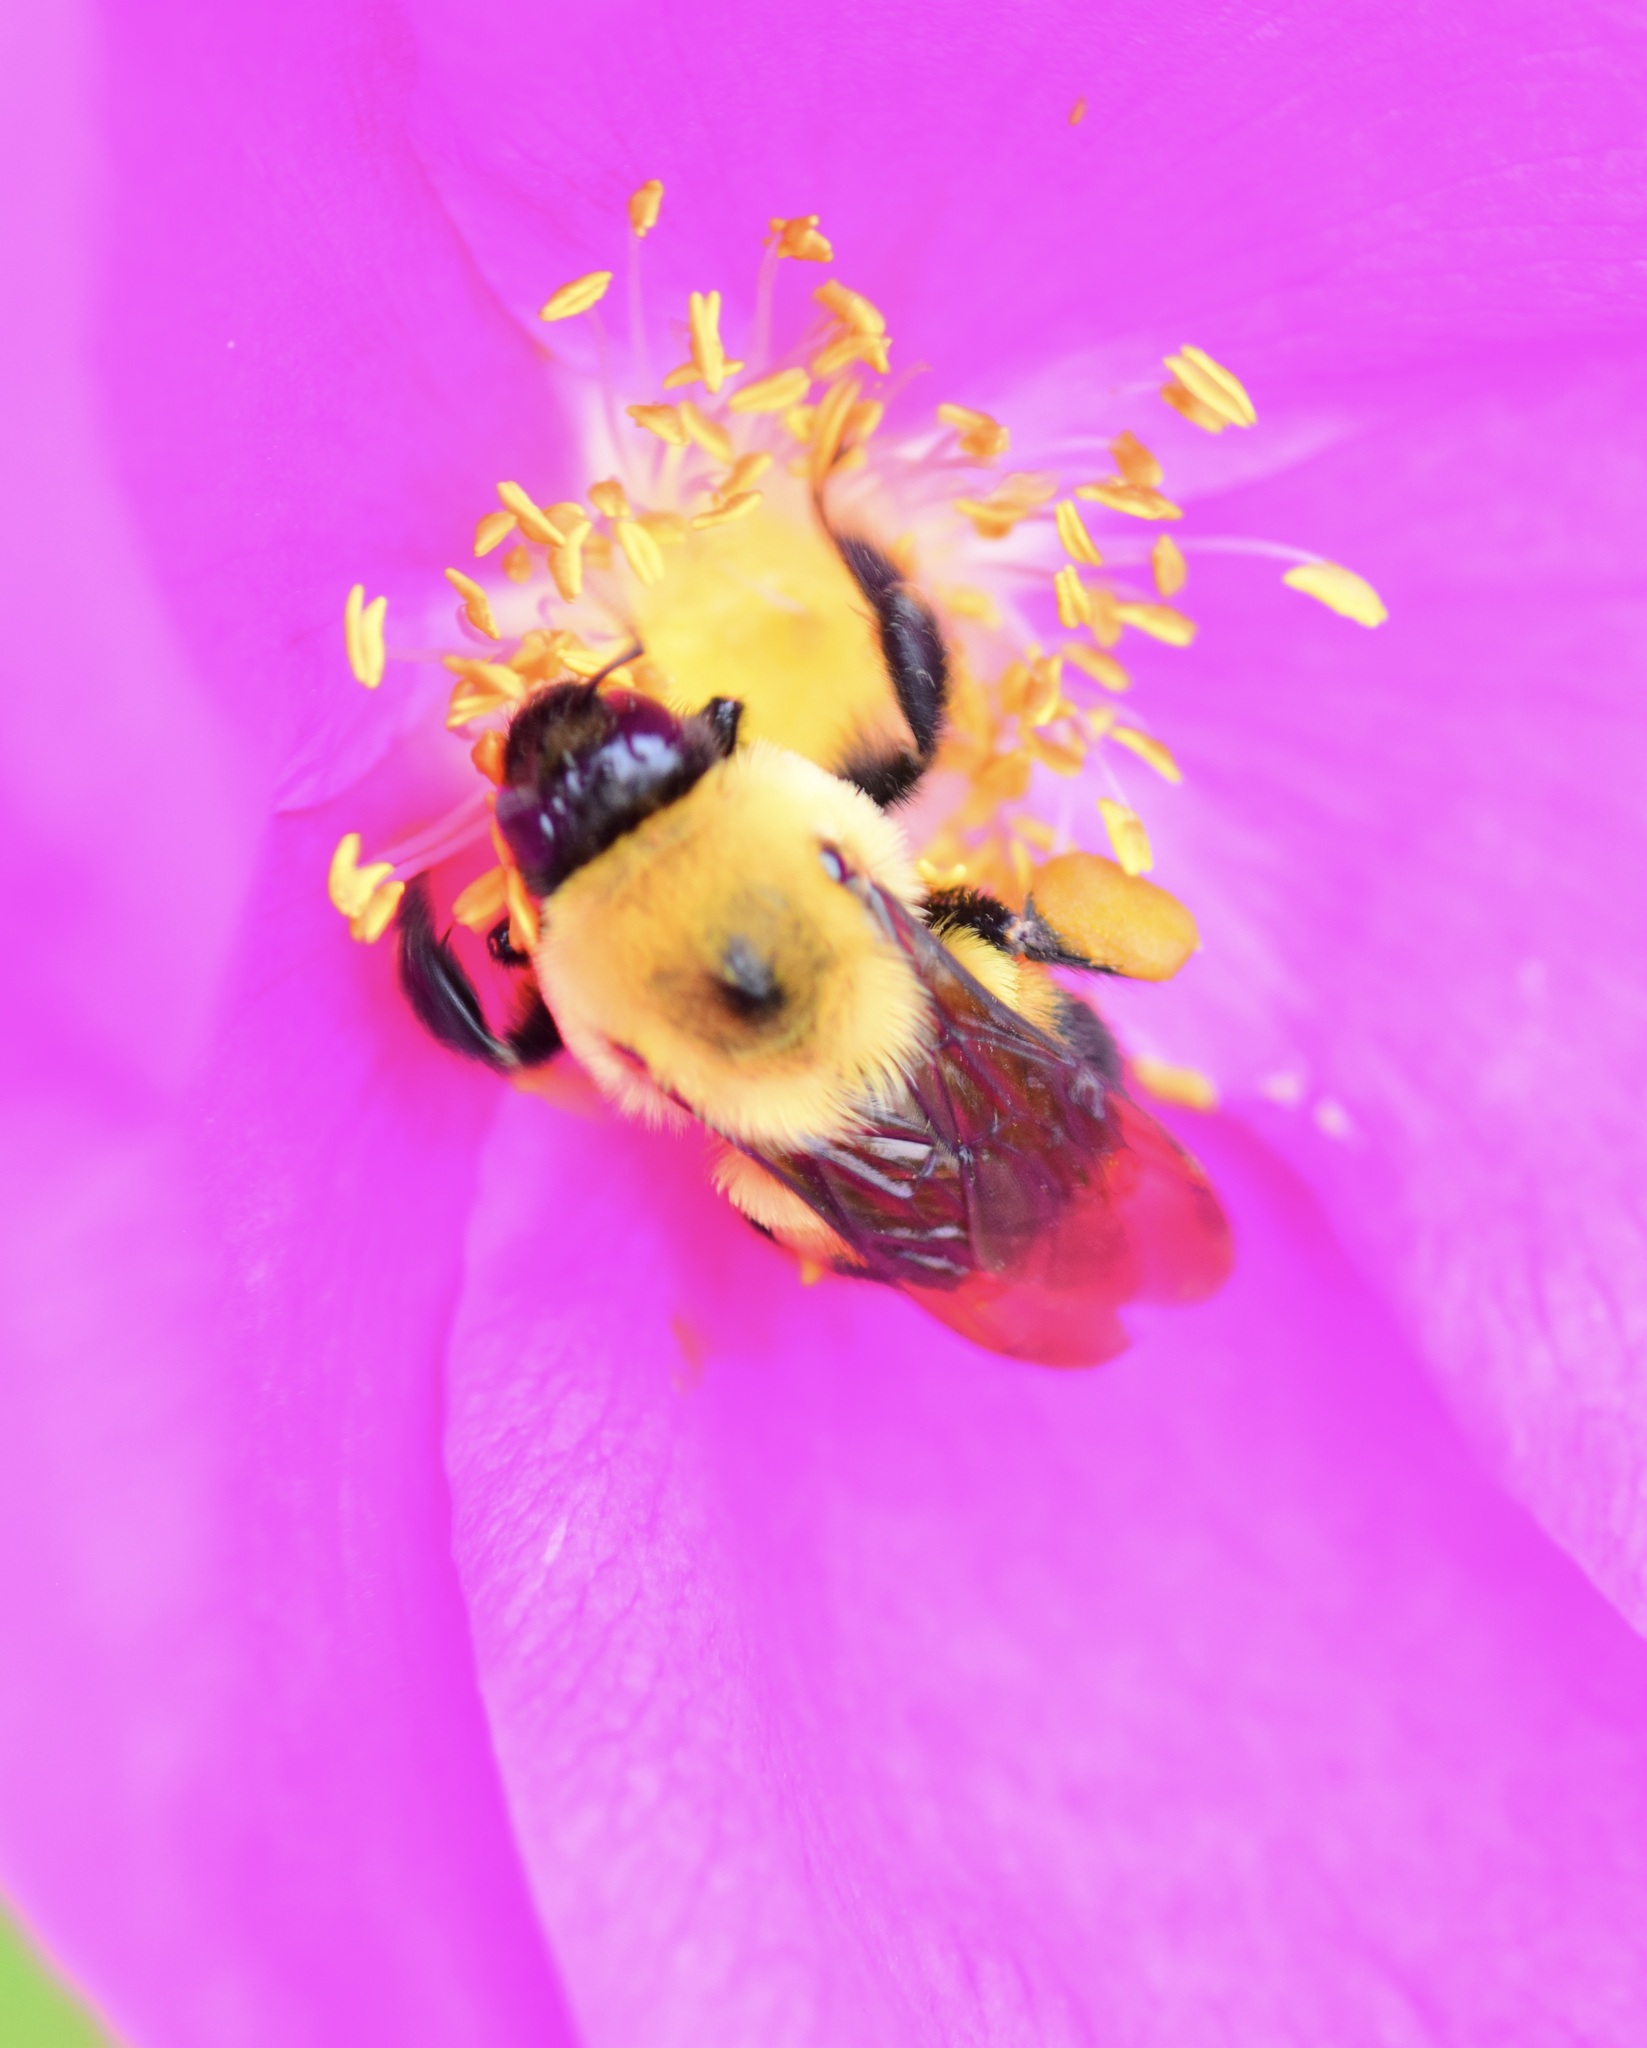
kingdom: Animalia
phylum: Arthropoda
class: Insecta
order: Hymenoptera
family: Apidae
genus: Bombus
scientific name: Bombus griseocollis
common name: Brown-belted bumble bee
